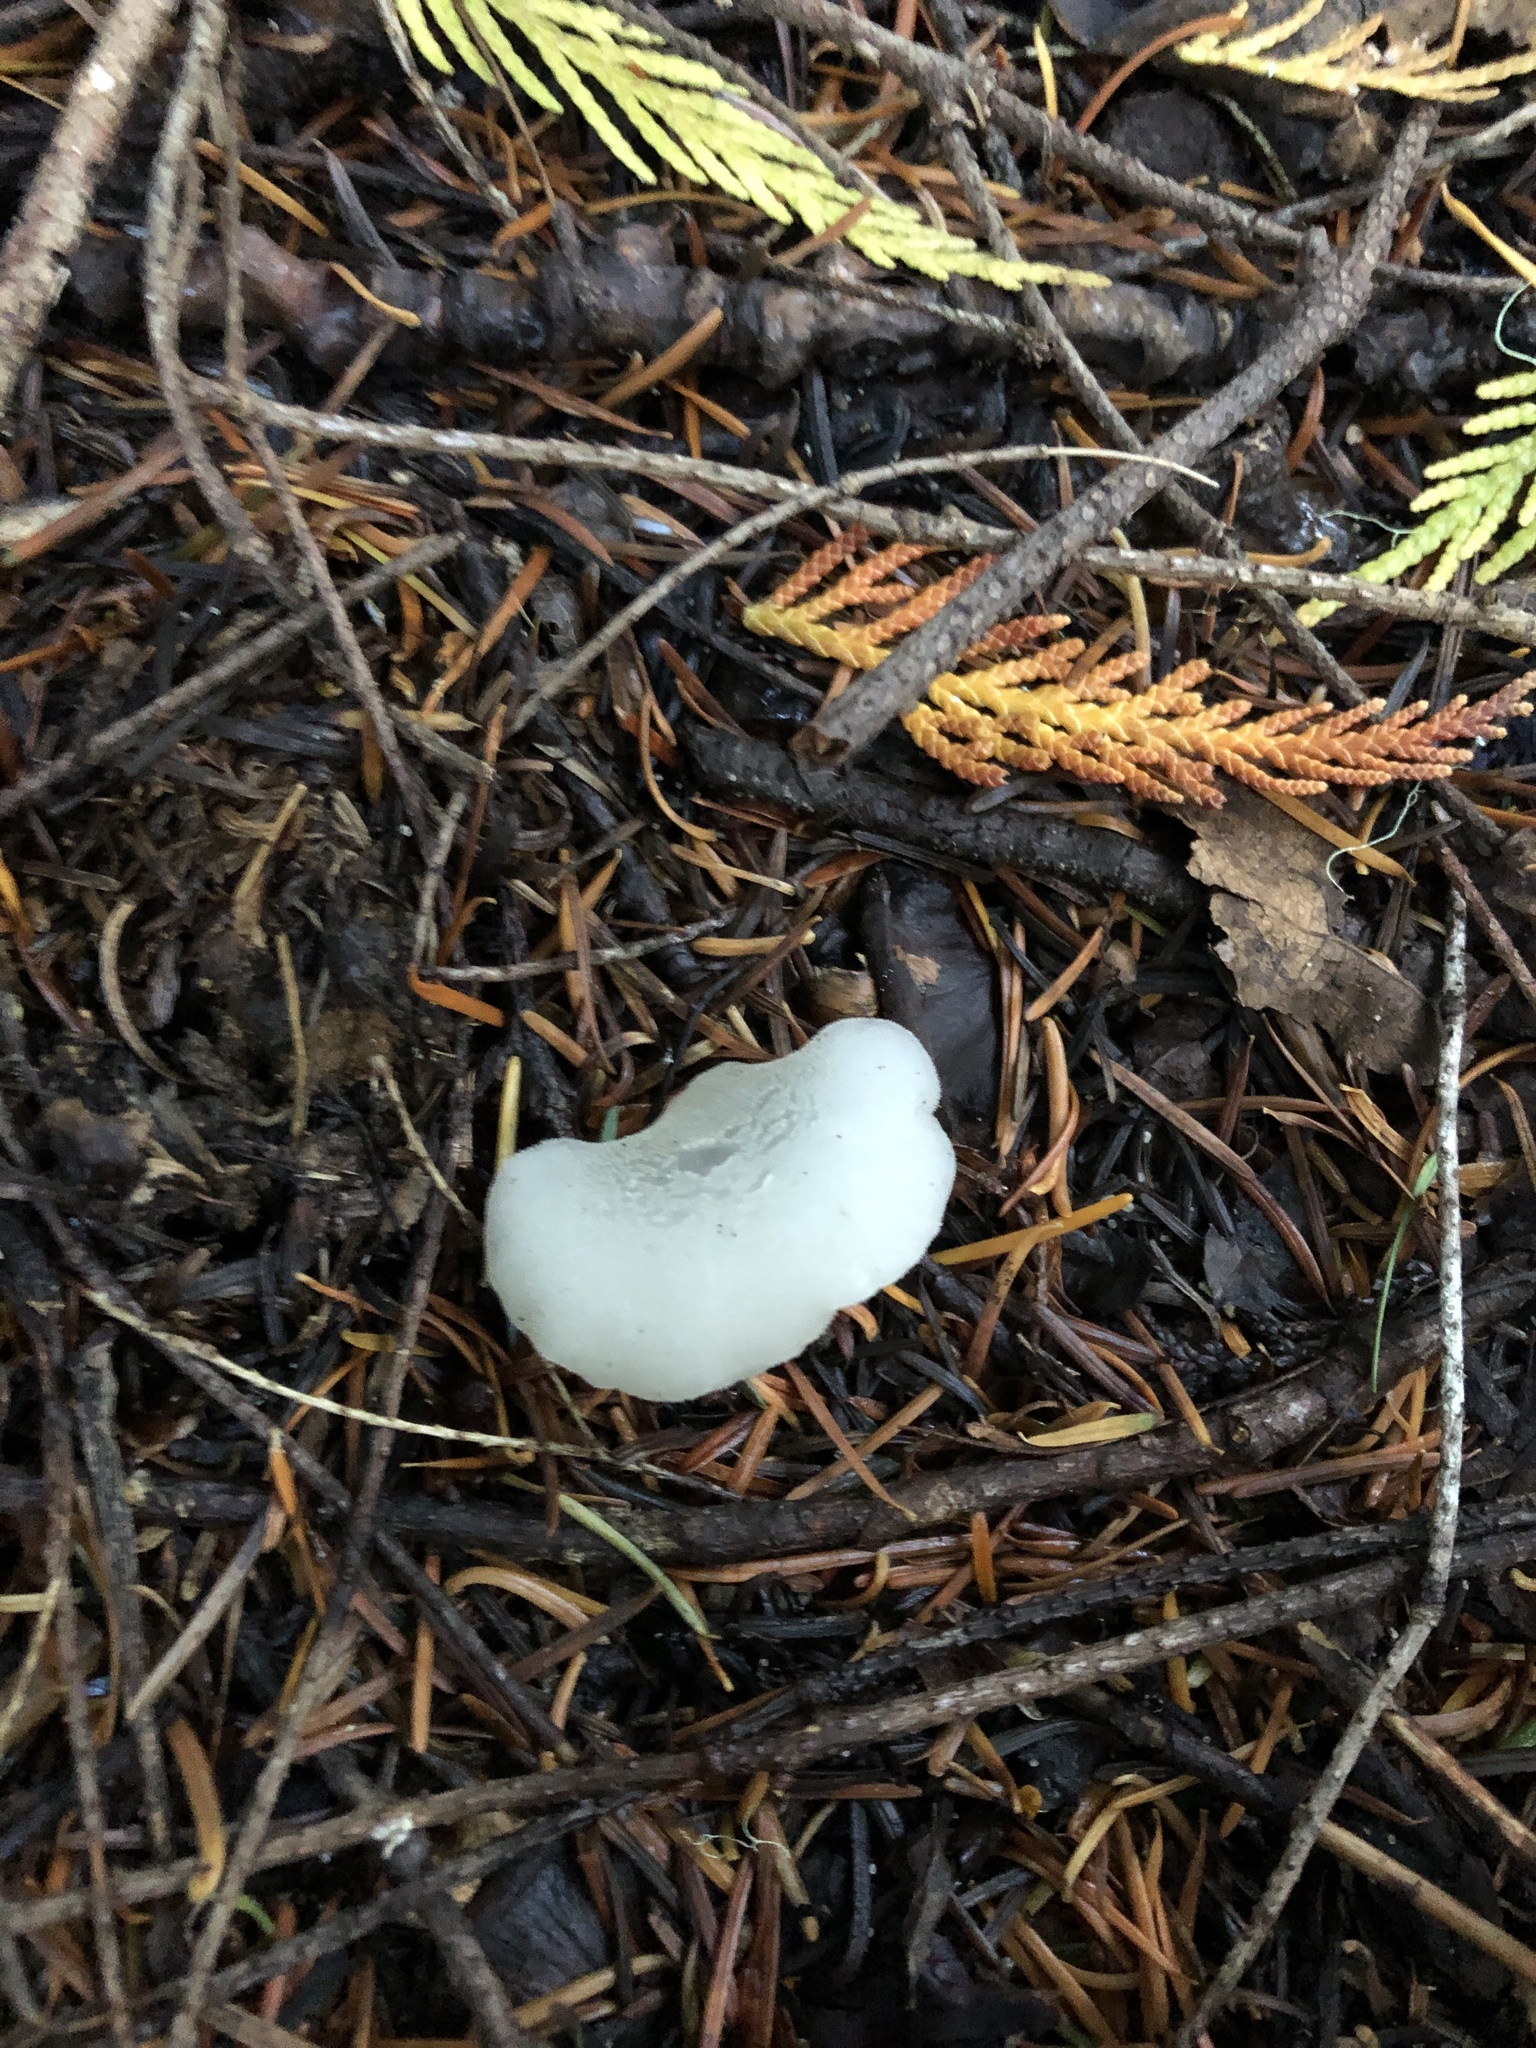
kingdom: Fungi
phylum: Basidiomycota
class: Agaricomycetes
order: Auriculariales
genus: Pseudohydnum
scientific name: Pseudohydnum gelatinosum
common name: Jelly tongue
